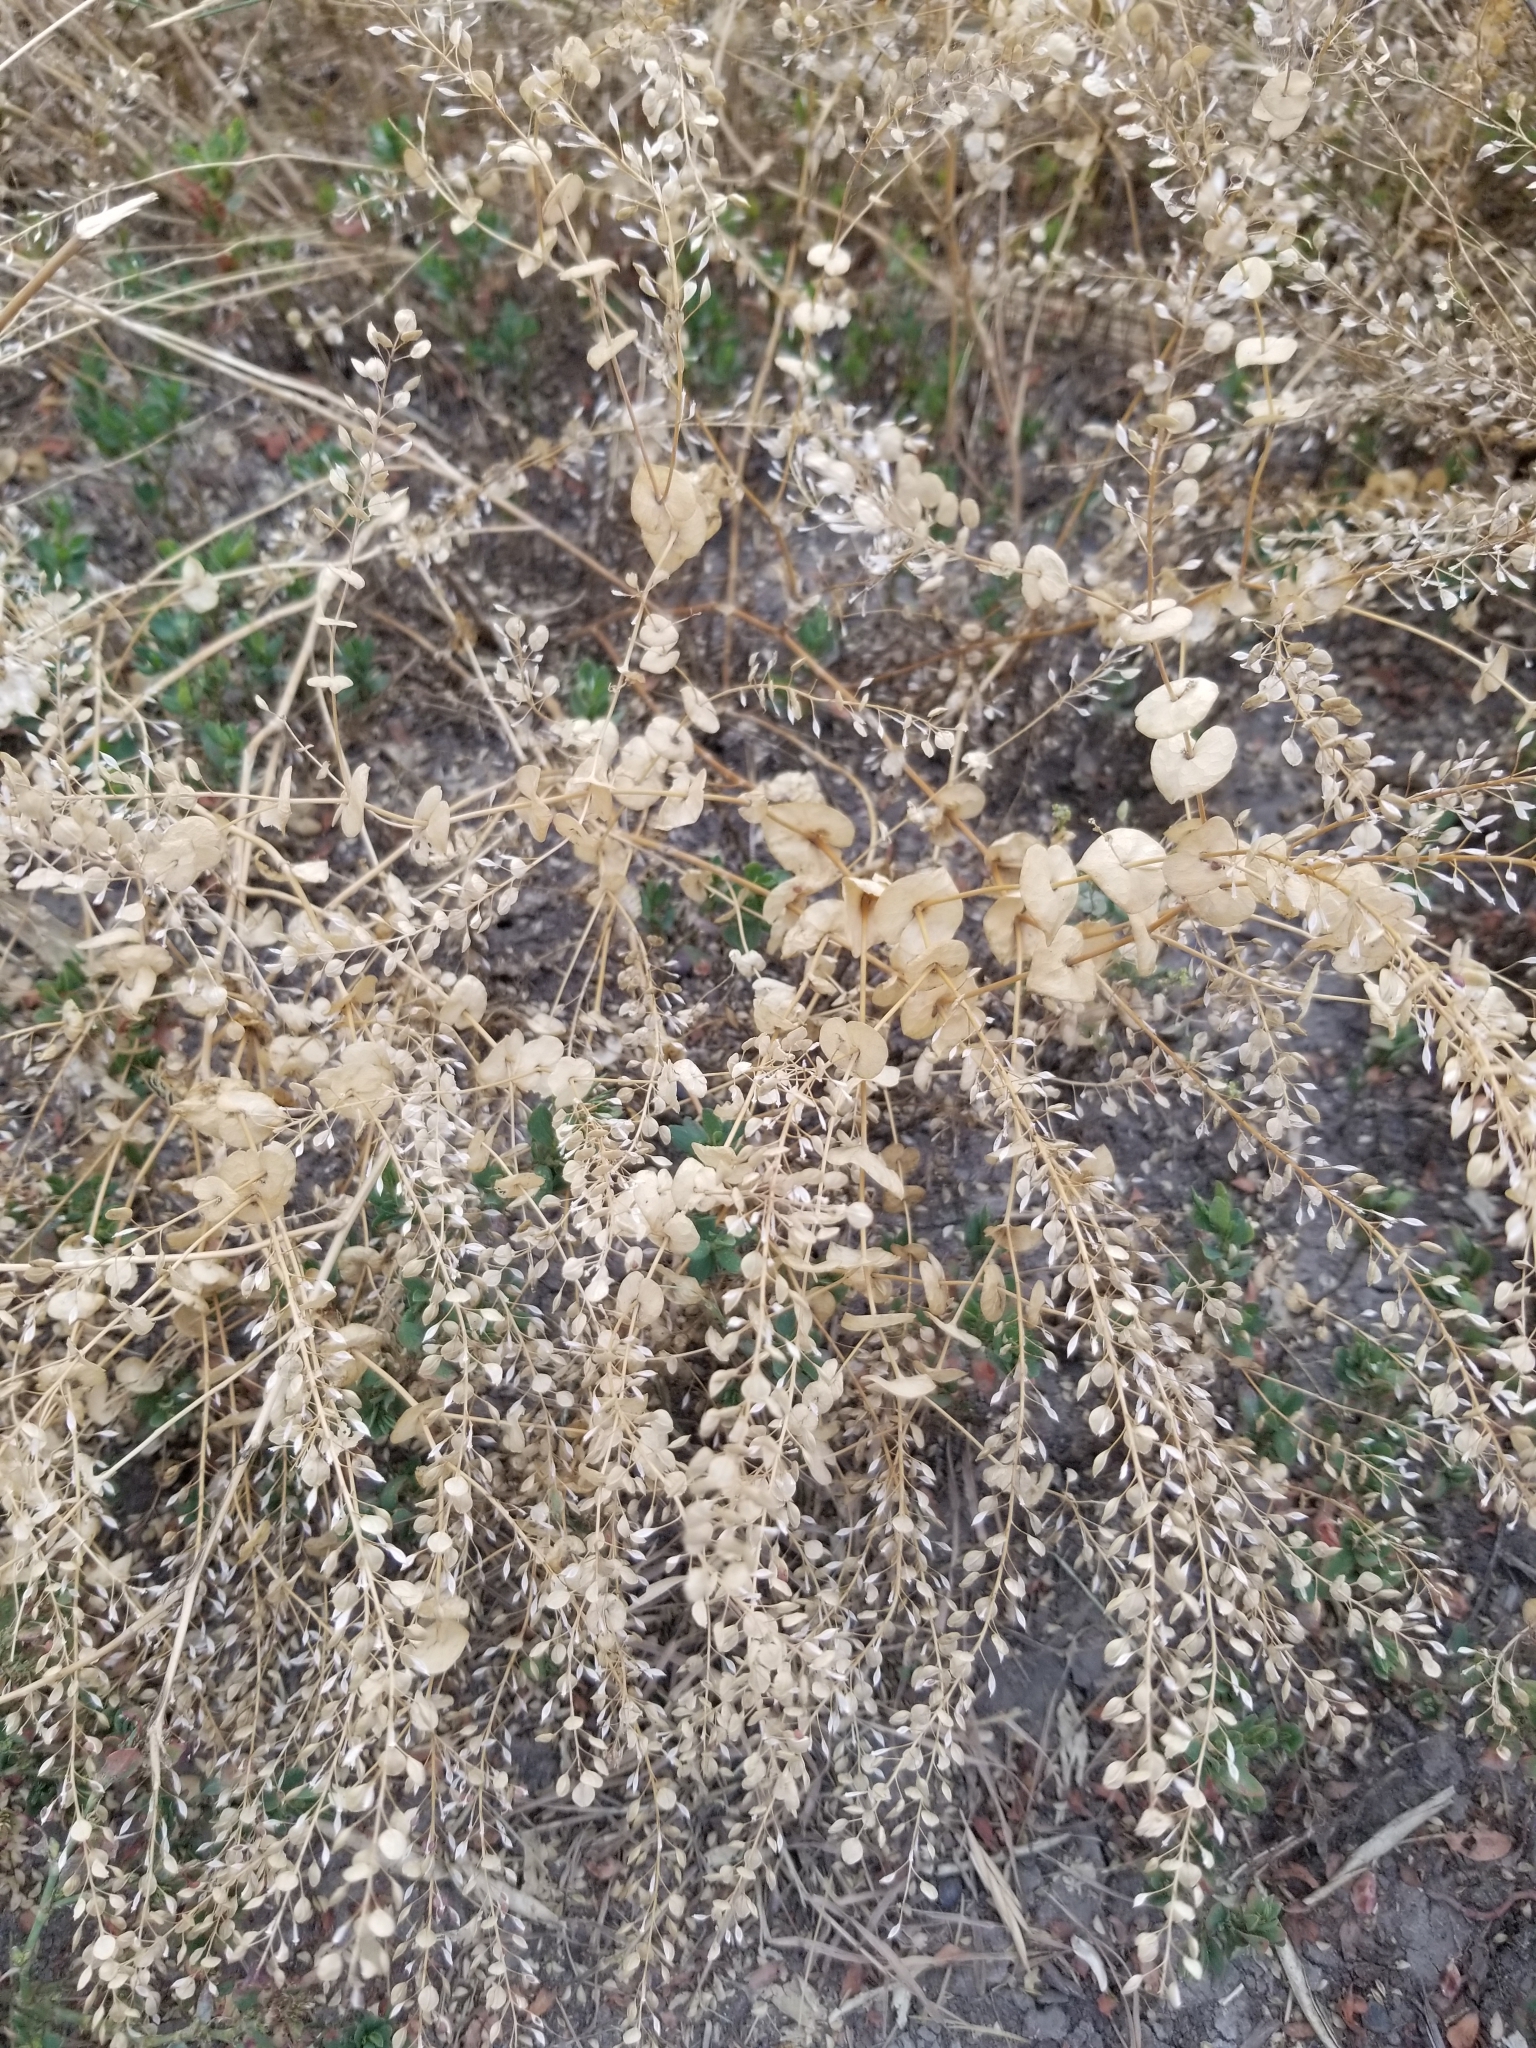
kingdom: Plantae
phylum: Tracheophyta
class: Magnoliopsida
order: Brassicales
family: Brassicaceae
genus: Lepidium
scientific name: Lepidium perfoliatum
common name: Perfoliate pepperwort
